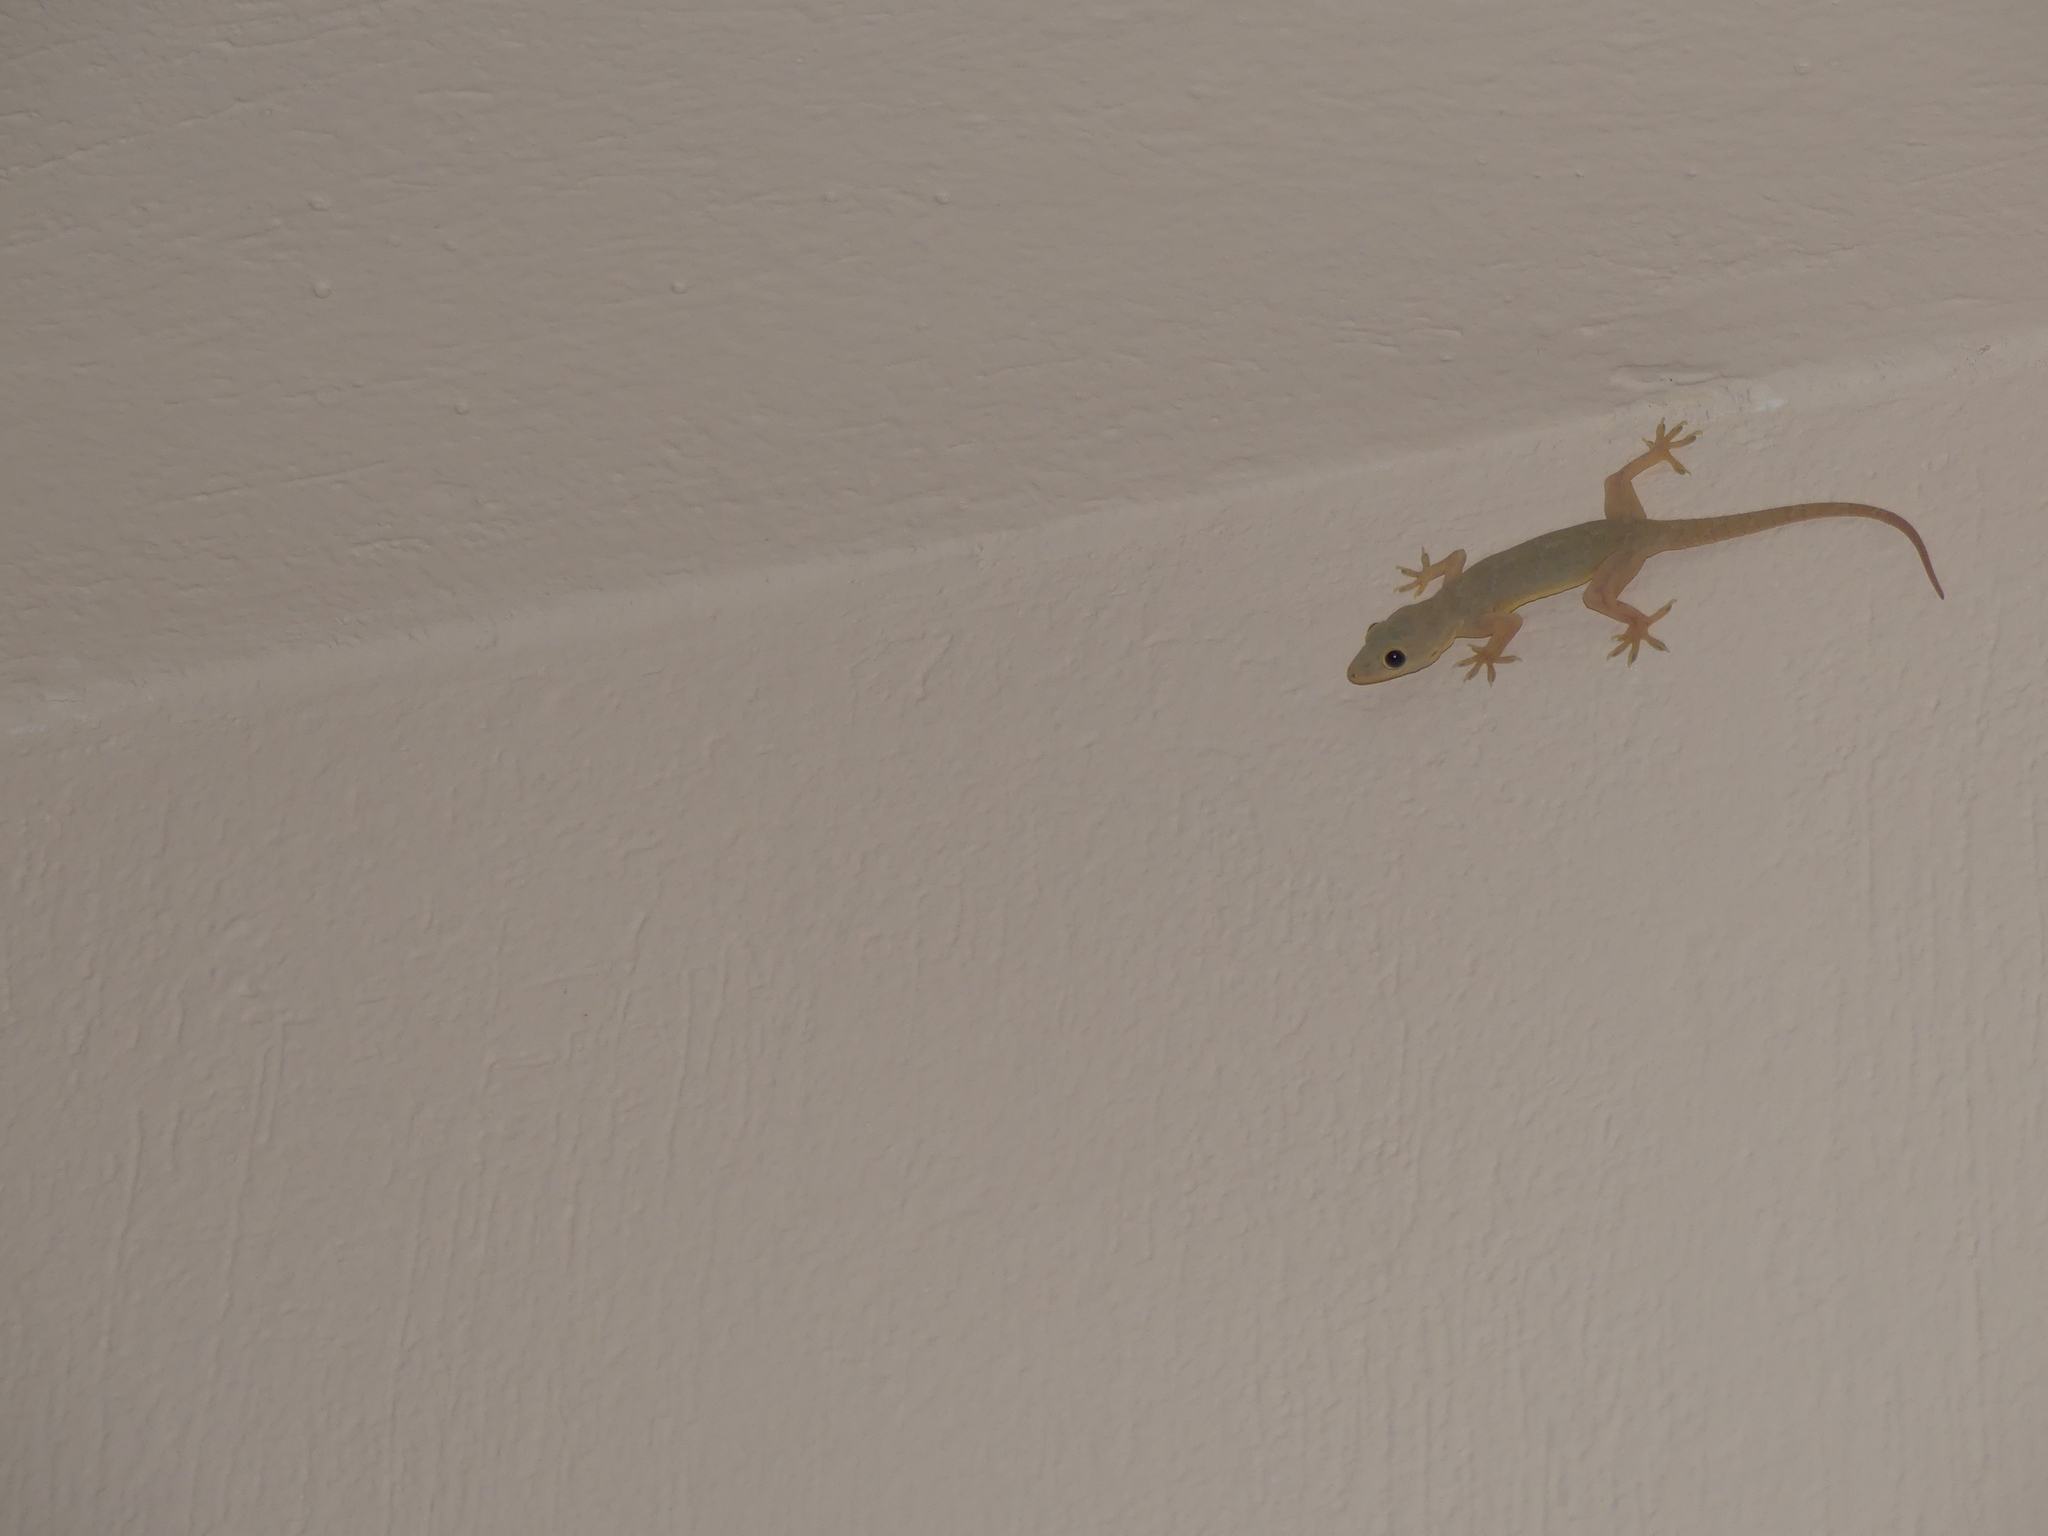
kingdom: Animalia
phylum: Chordata
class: Squamata
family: Gekkonidae
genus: Hemidactylus
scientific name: Hemidactylus flaviviridis
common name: Northern house gecko
